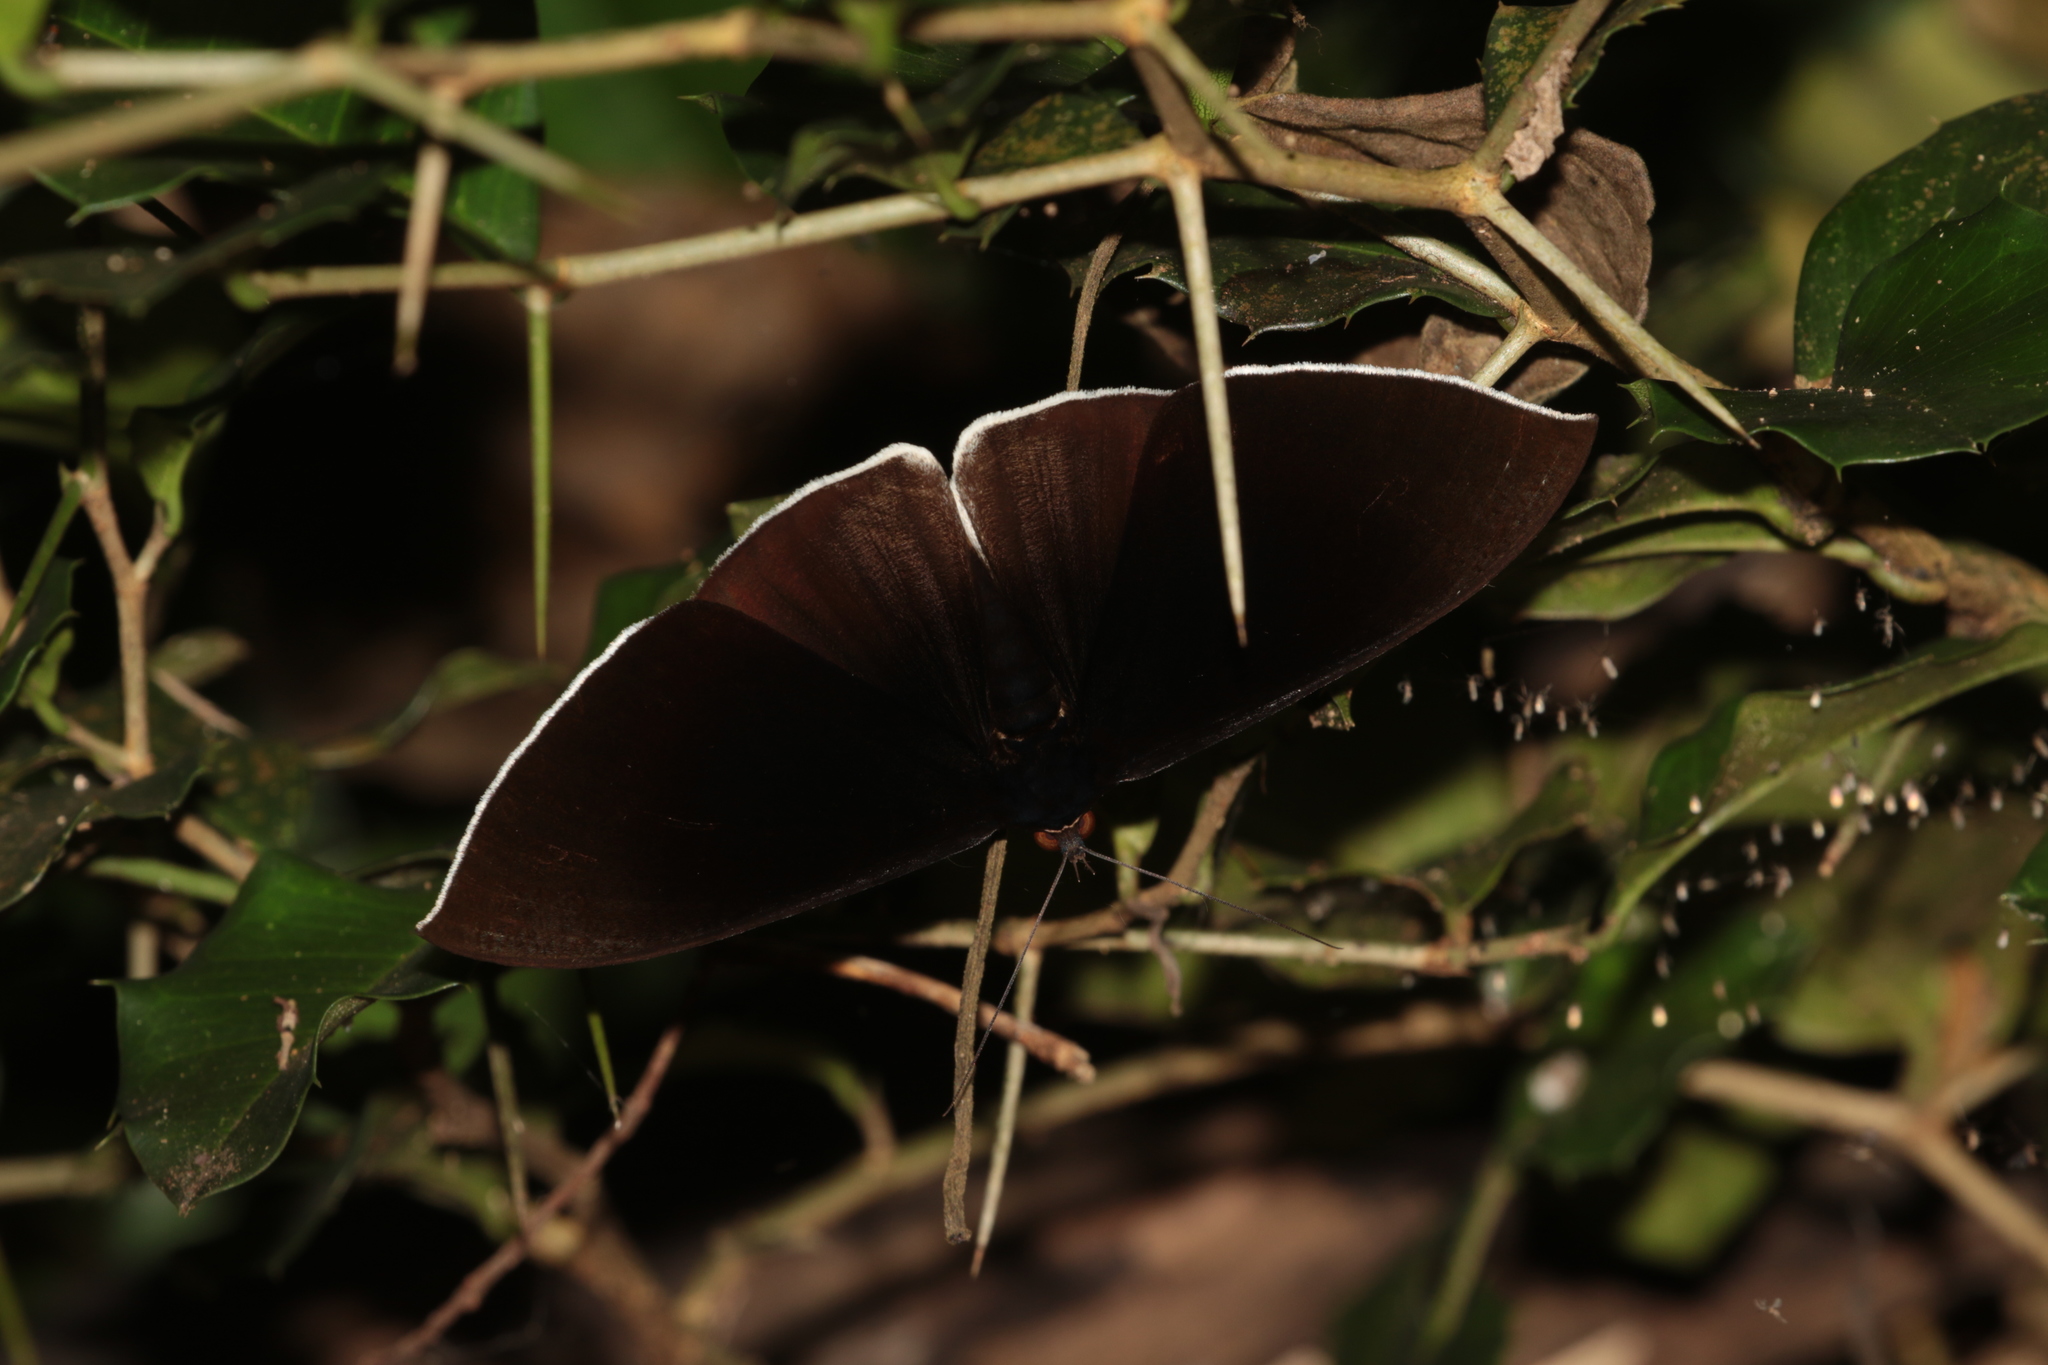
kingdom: Animalia
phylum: Arthropoda
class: Insecta
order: Lepidoptera
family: Erebidae
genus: Lygniodes
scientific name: Lygniodes endoleucus
